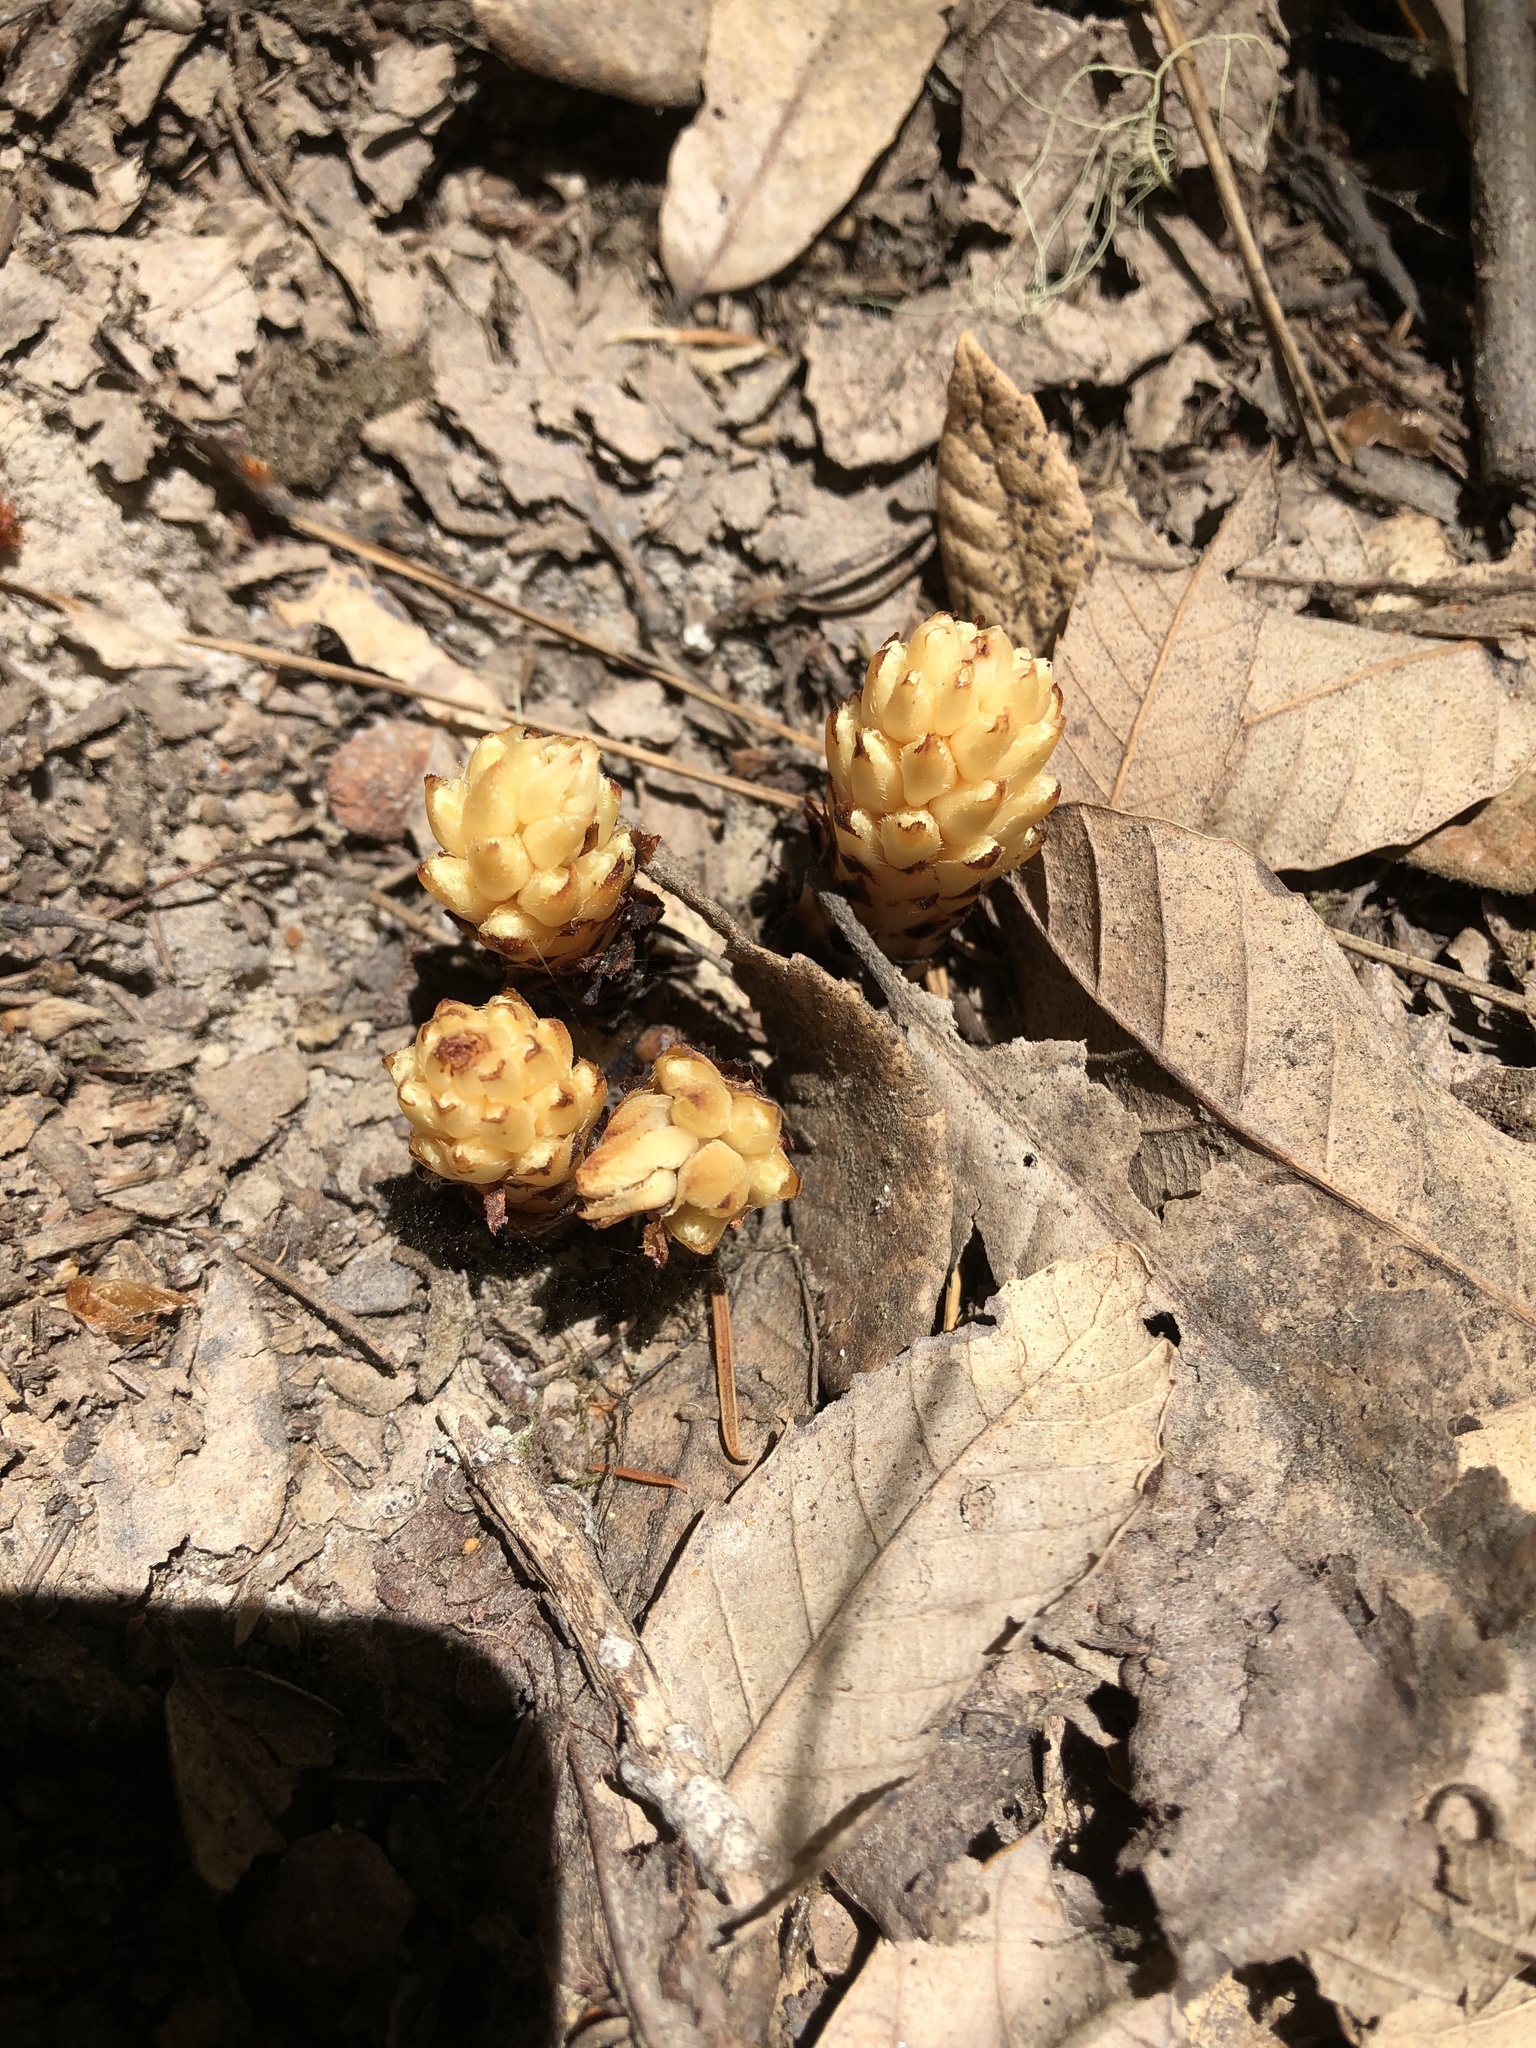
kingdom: Plantae
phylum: Tracheophyta
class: Magnoliopsida
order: Ericales
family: Ericaceae
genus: Pleuricospora
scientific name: Pleuricospora fimbriolata
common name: Fringed pinesap
